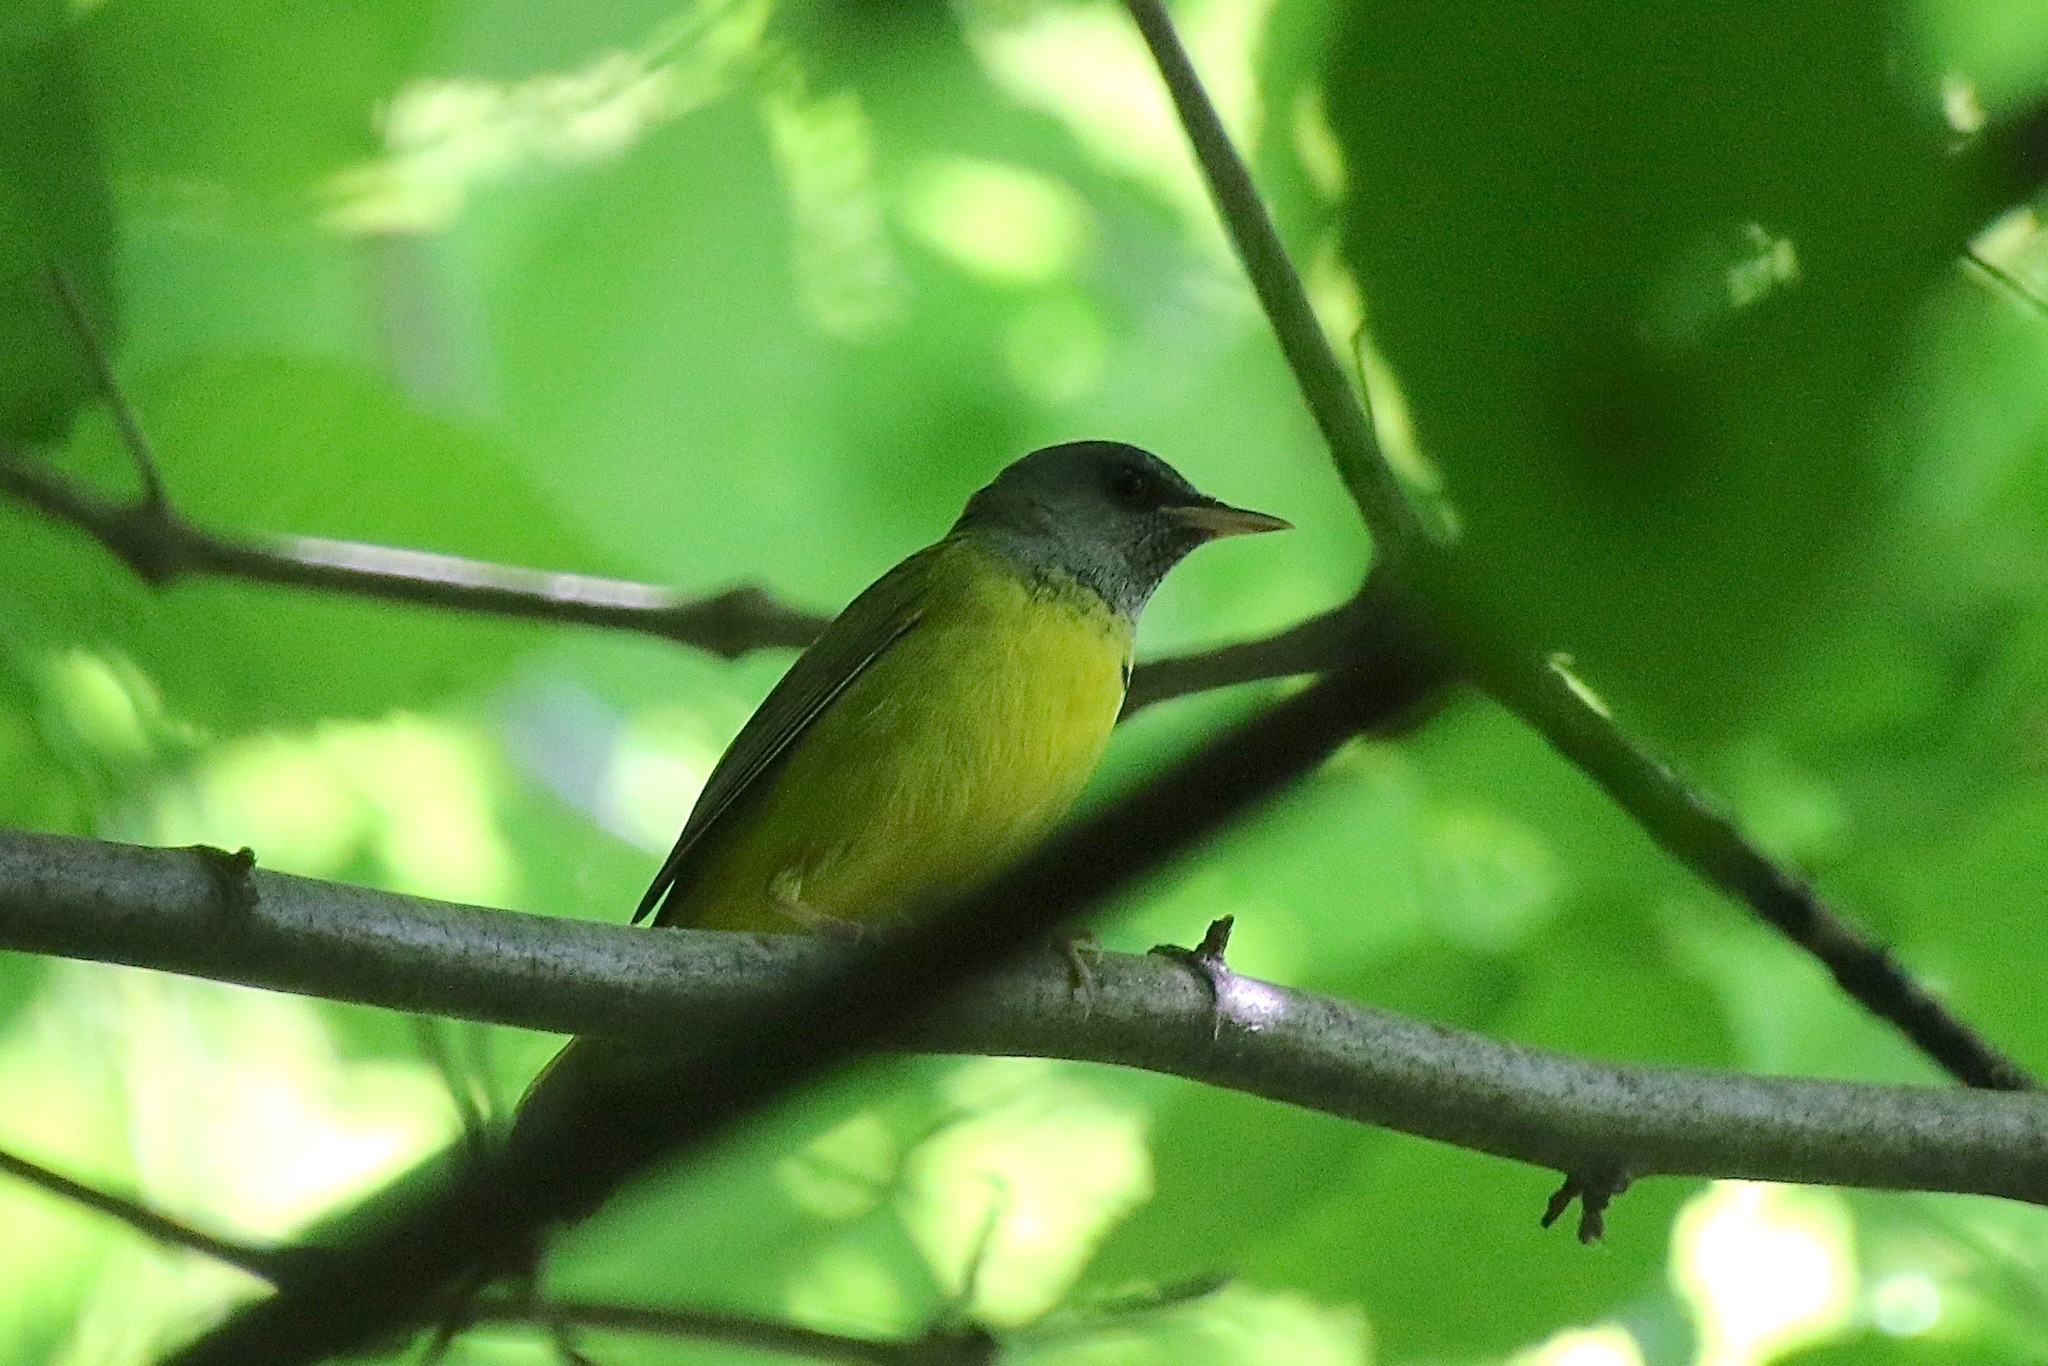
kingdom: Animalia
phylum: Chordata
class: Aves
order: Passeriformes
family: Parulidae
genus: Geothlypis
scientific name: Geothlypis philadelphia
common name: Mourning warbler
